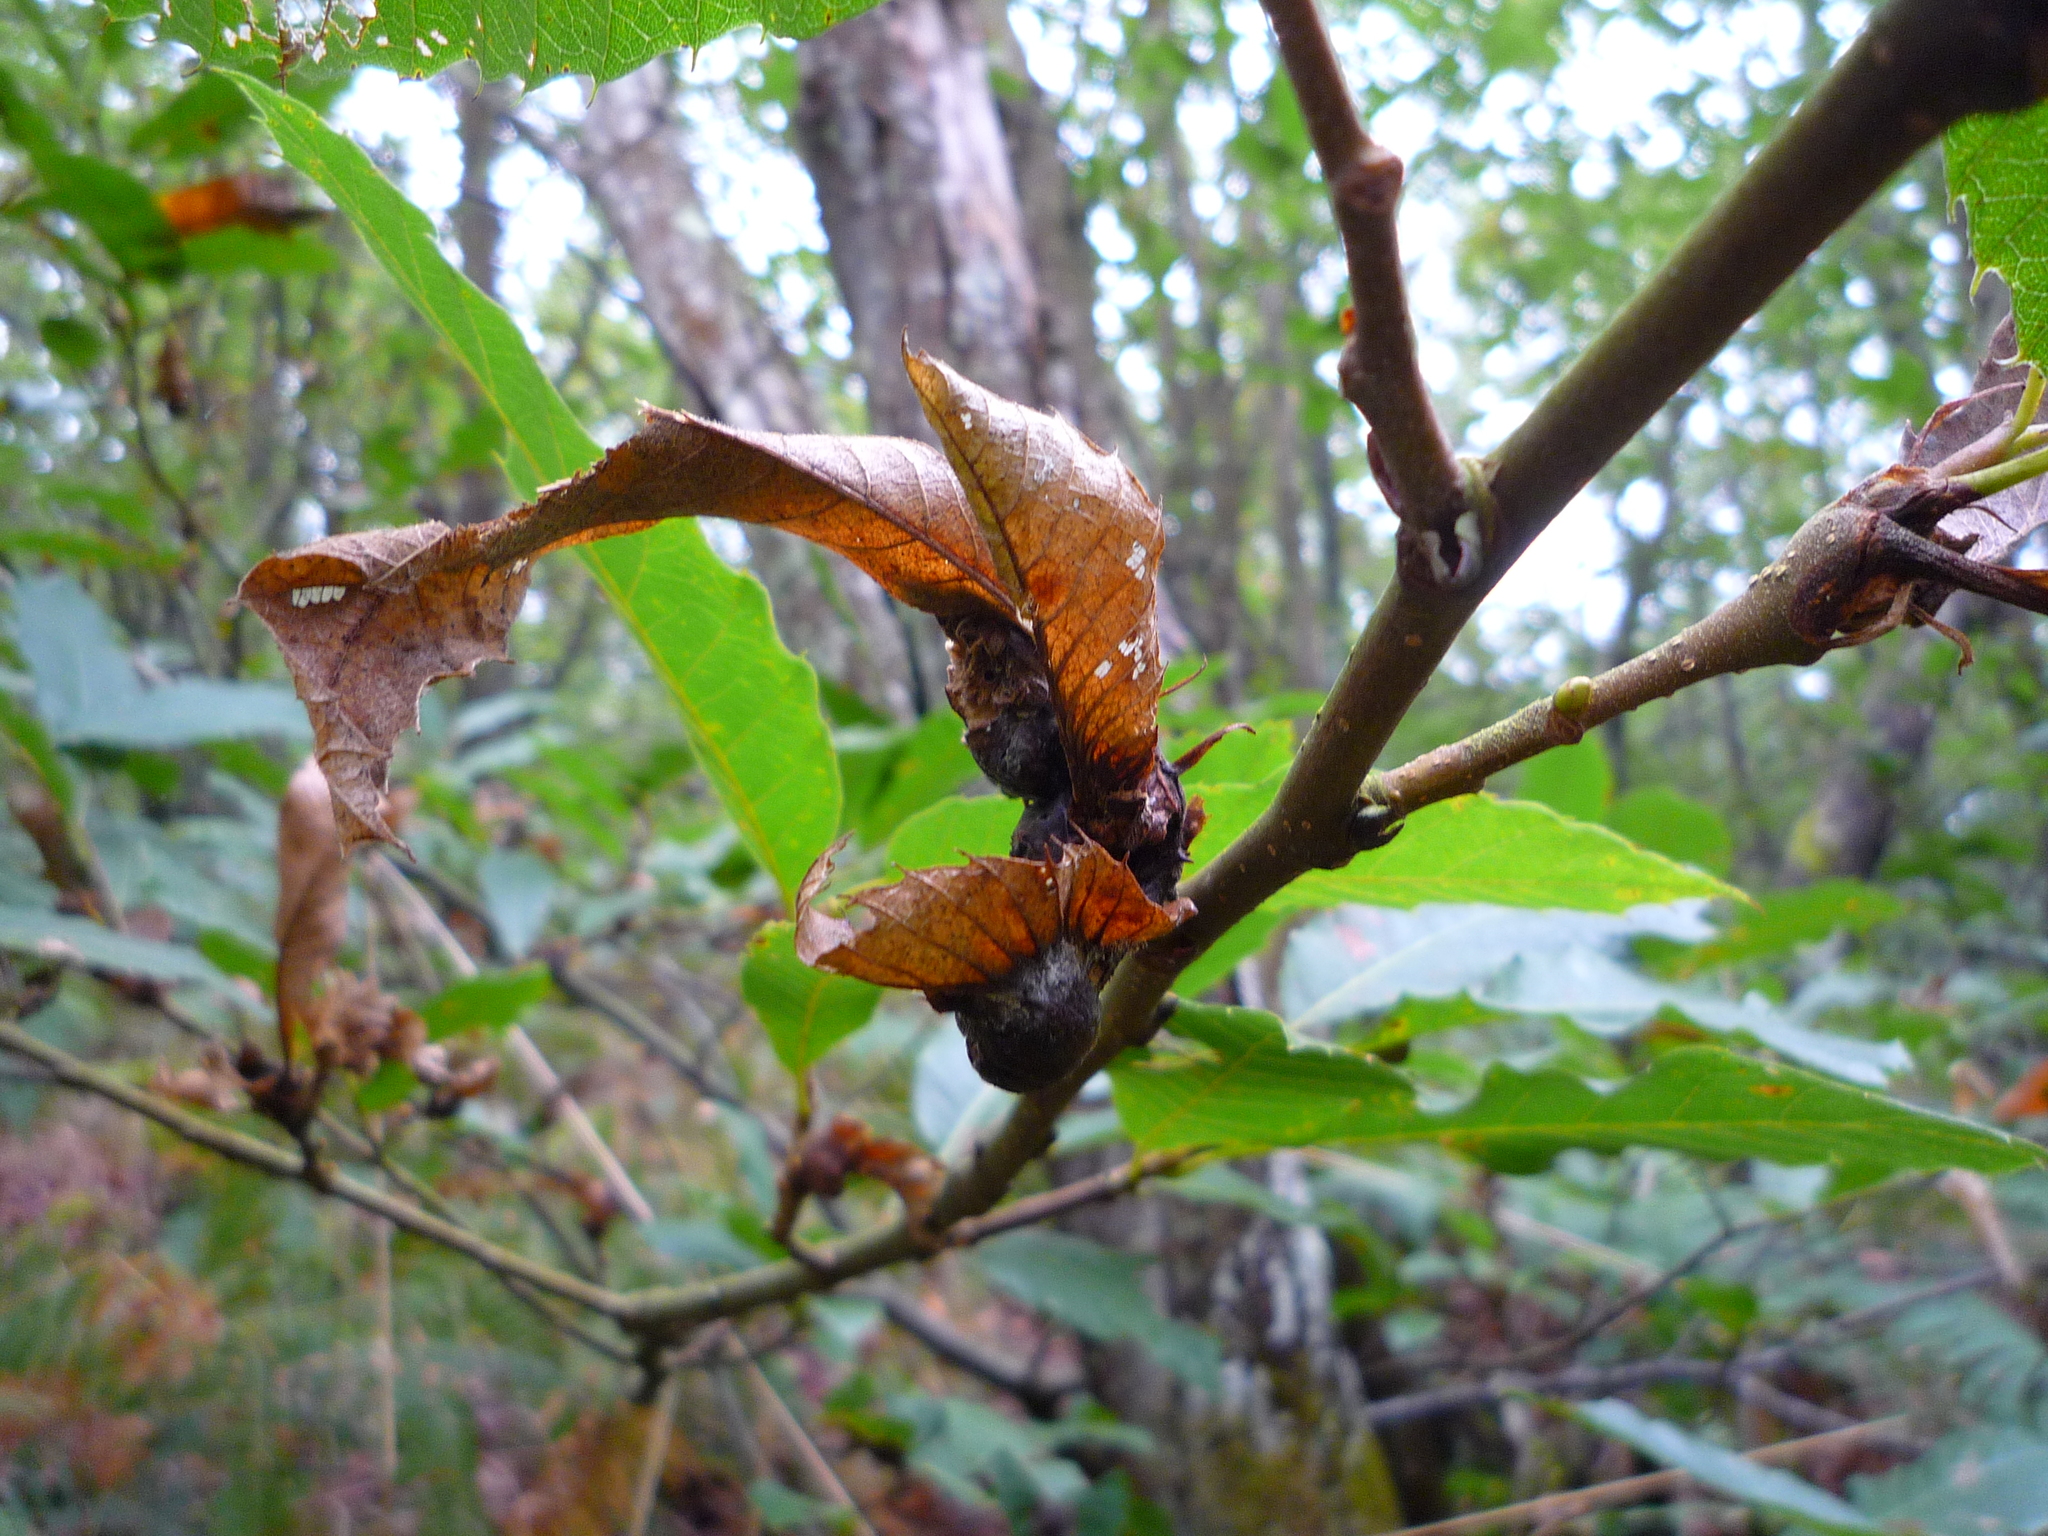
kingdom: Animalia
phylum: Arthropoda
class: Insecta
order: Hymenoptera
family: Cynipidae
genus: Dryocosmus
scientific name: Dryocosmus kuriphilus
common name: Asian chestnut gall wasp
